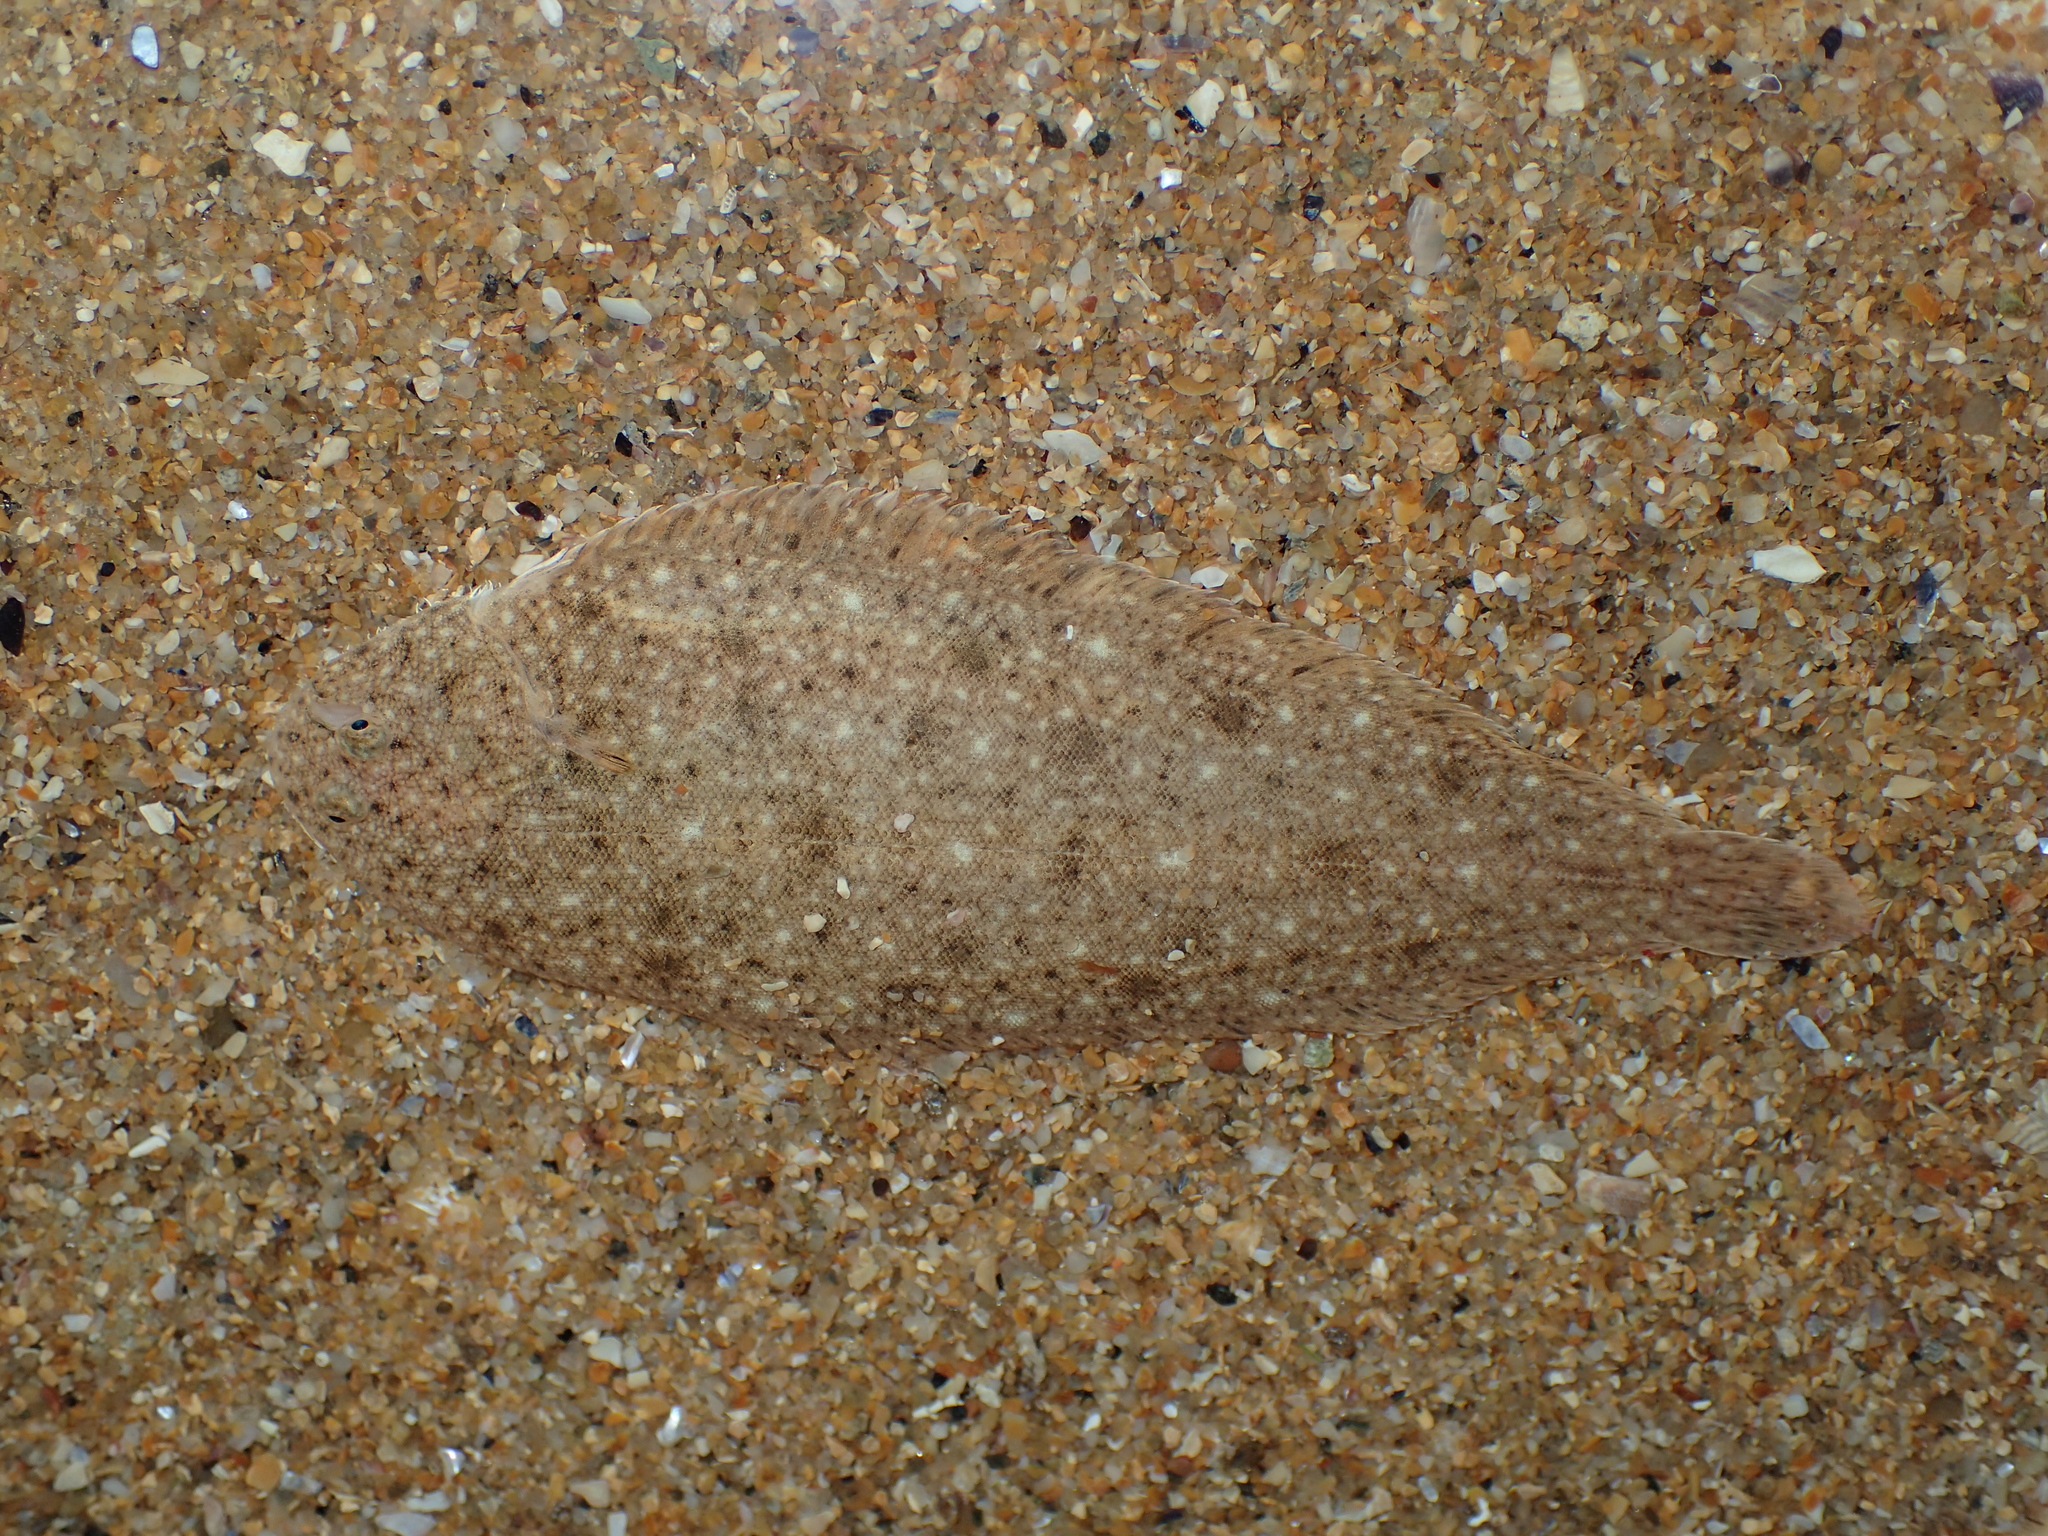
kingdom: Animalia
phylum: Chordata
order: Pleuronectiformes
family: Soleidae
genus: Solea
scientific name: Solea solea
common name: Sole
